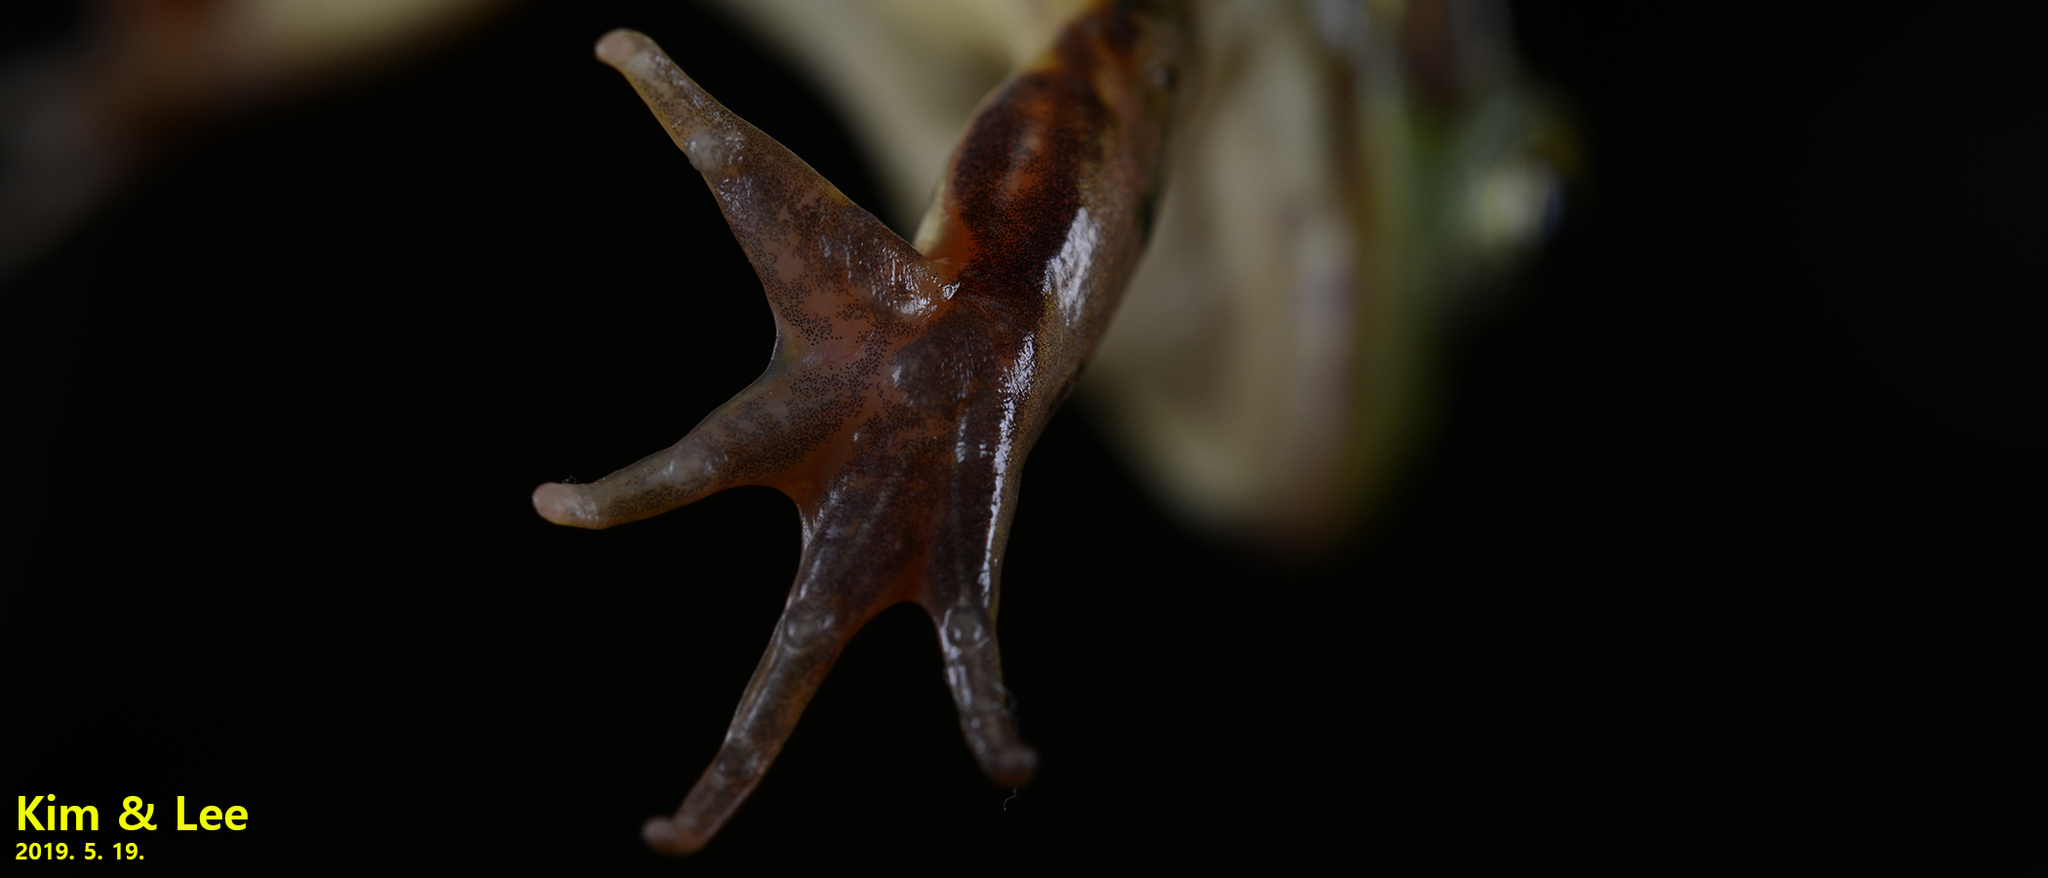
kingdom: Animalia
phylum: Chordata
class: Amphibia
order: Anura
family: Ranidae
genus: Pelophylax
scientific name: Pelophylax chosenicus
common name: Gold-spotted pond frog
